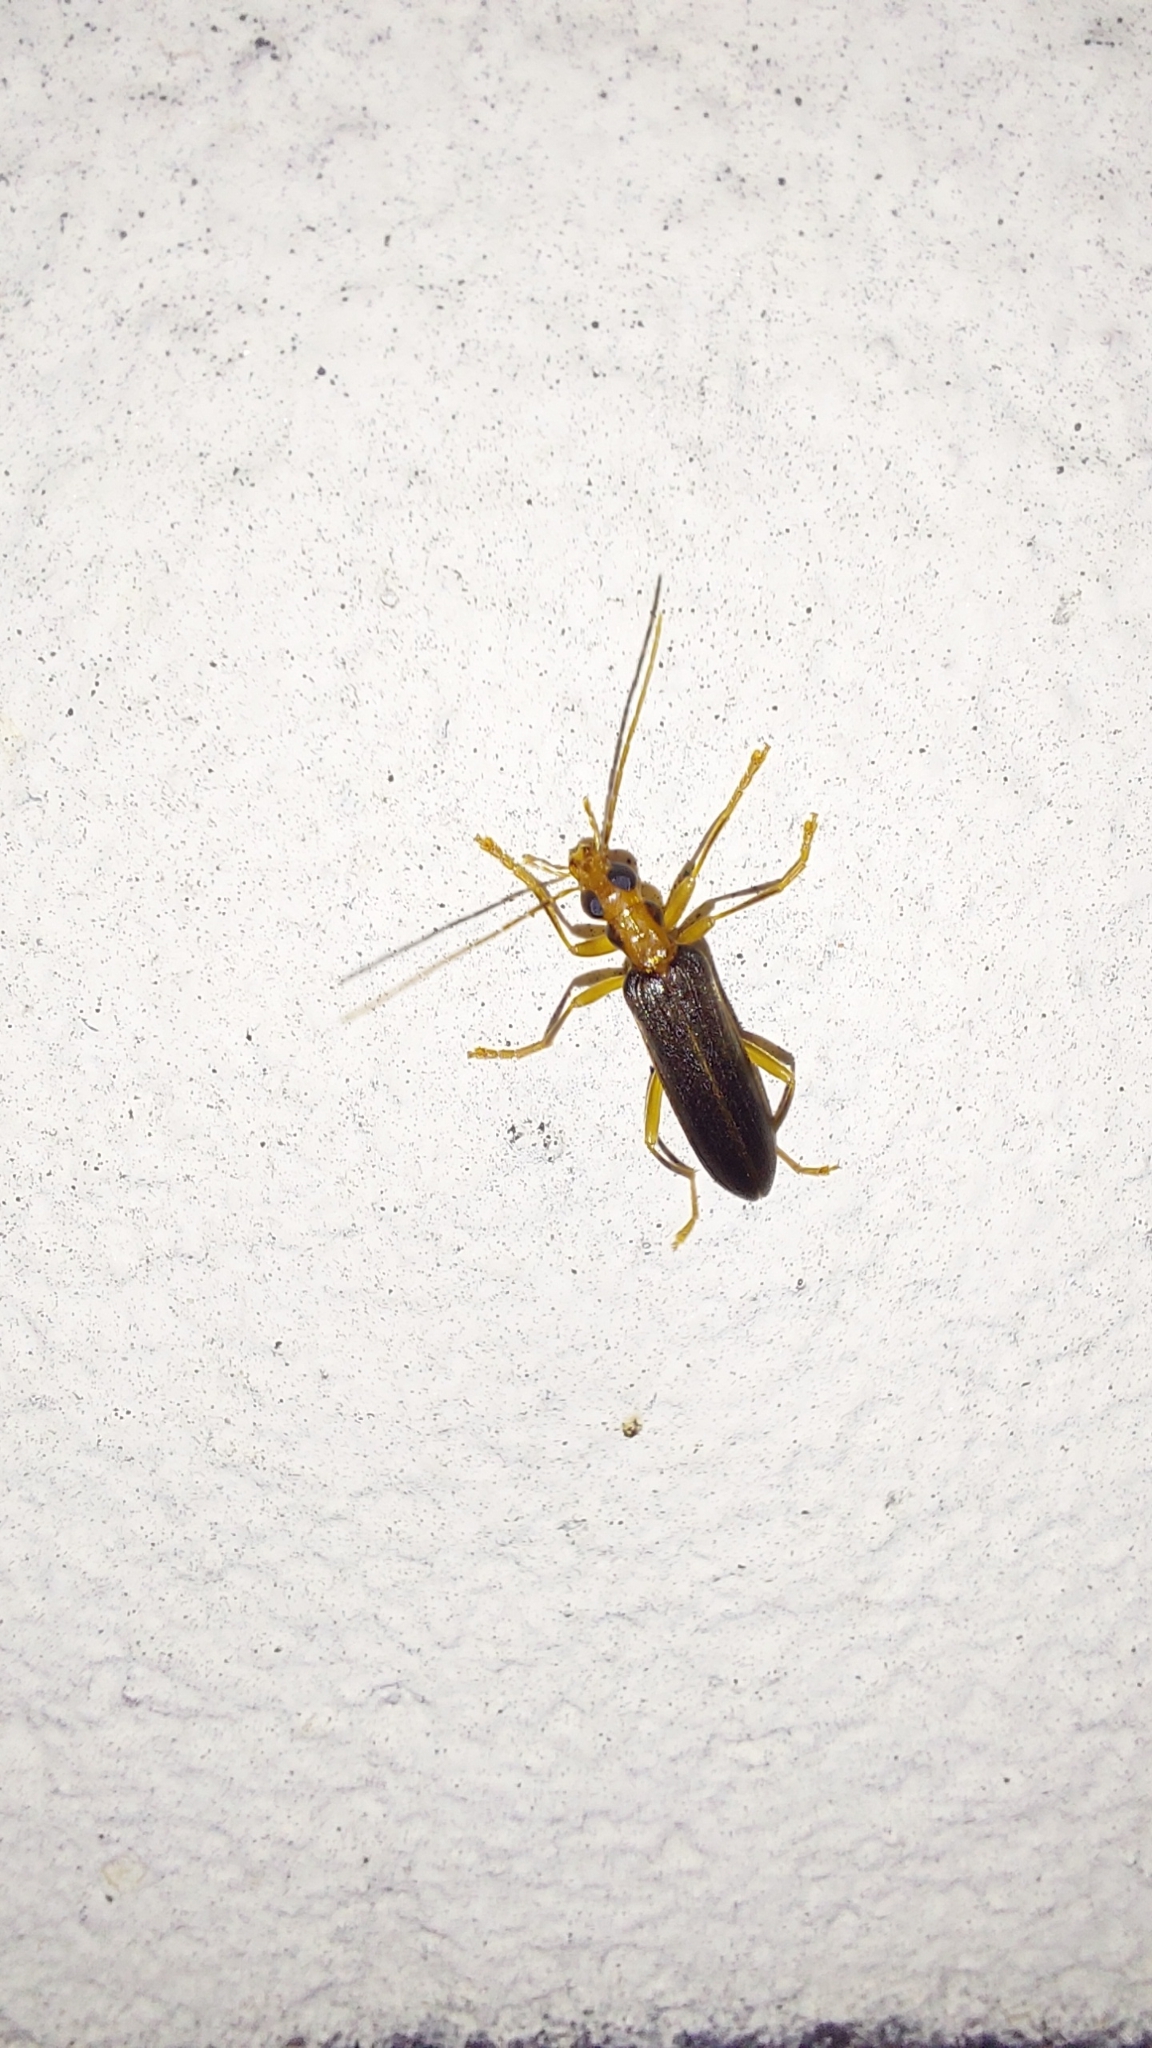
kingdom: Animalia
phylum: Arthropoda
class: Insecta
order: Coleoptera
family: Oedemeridae
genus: Nacerdes
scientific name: Nacerdes carniolica
